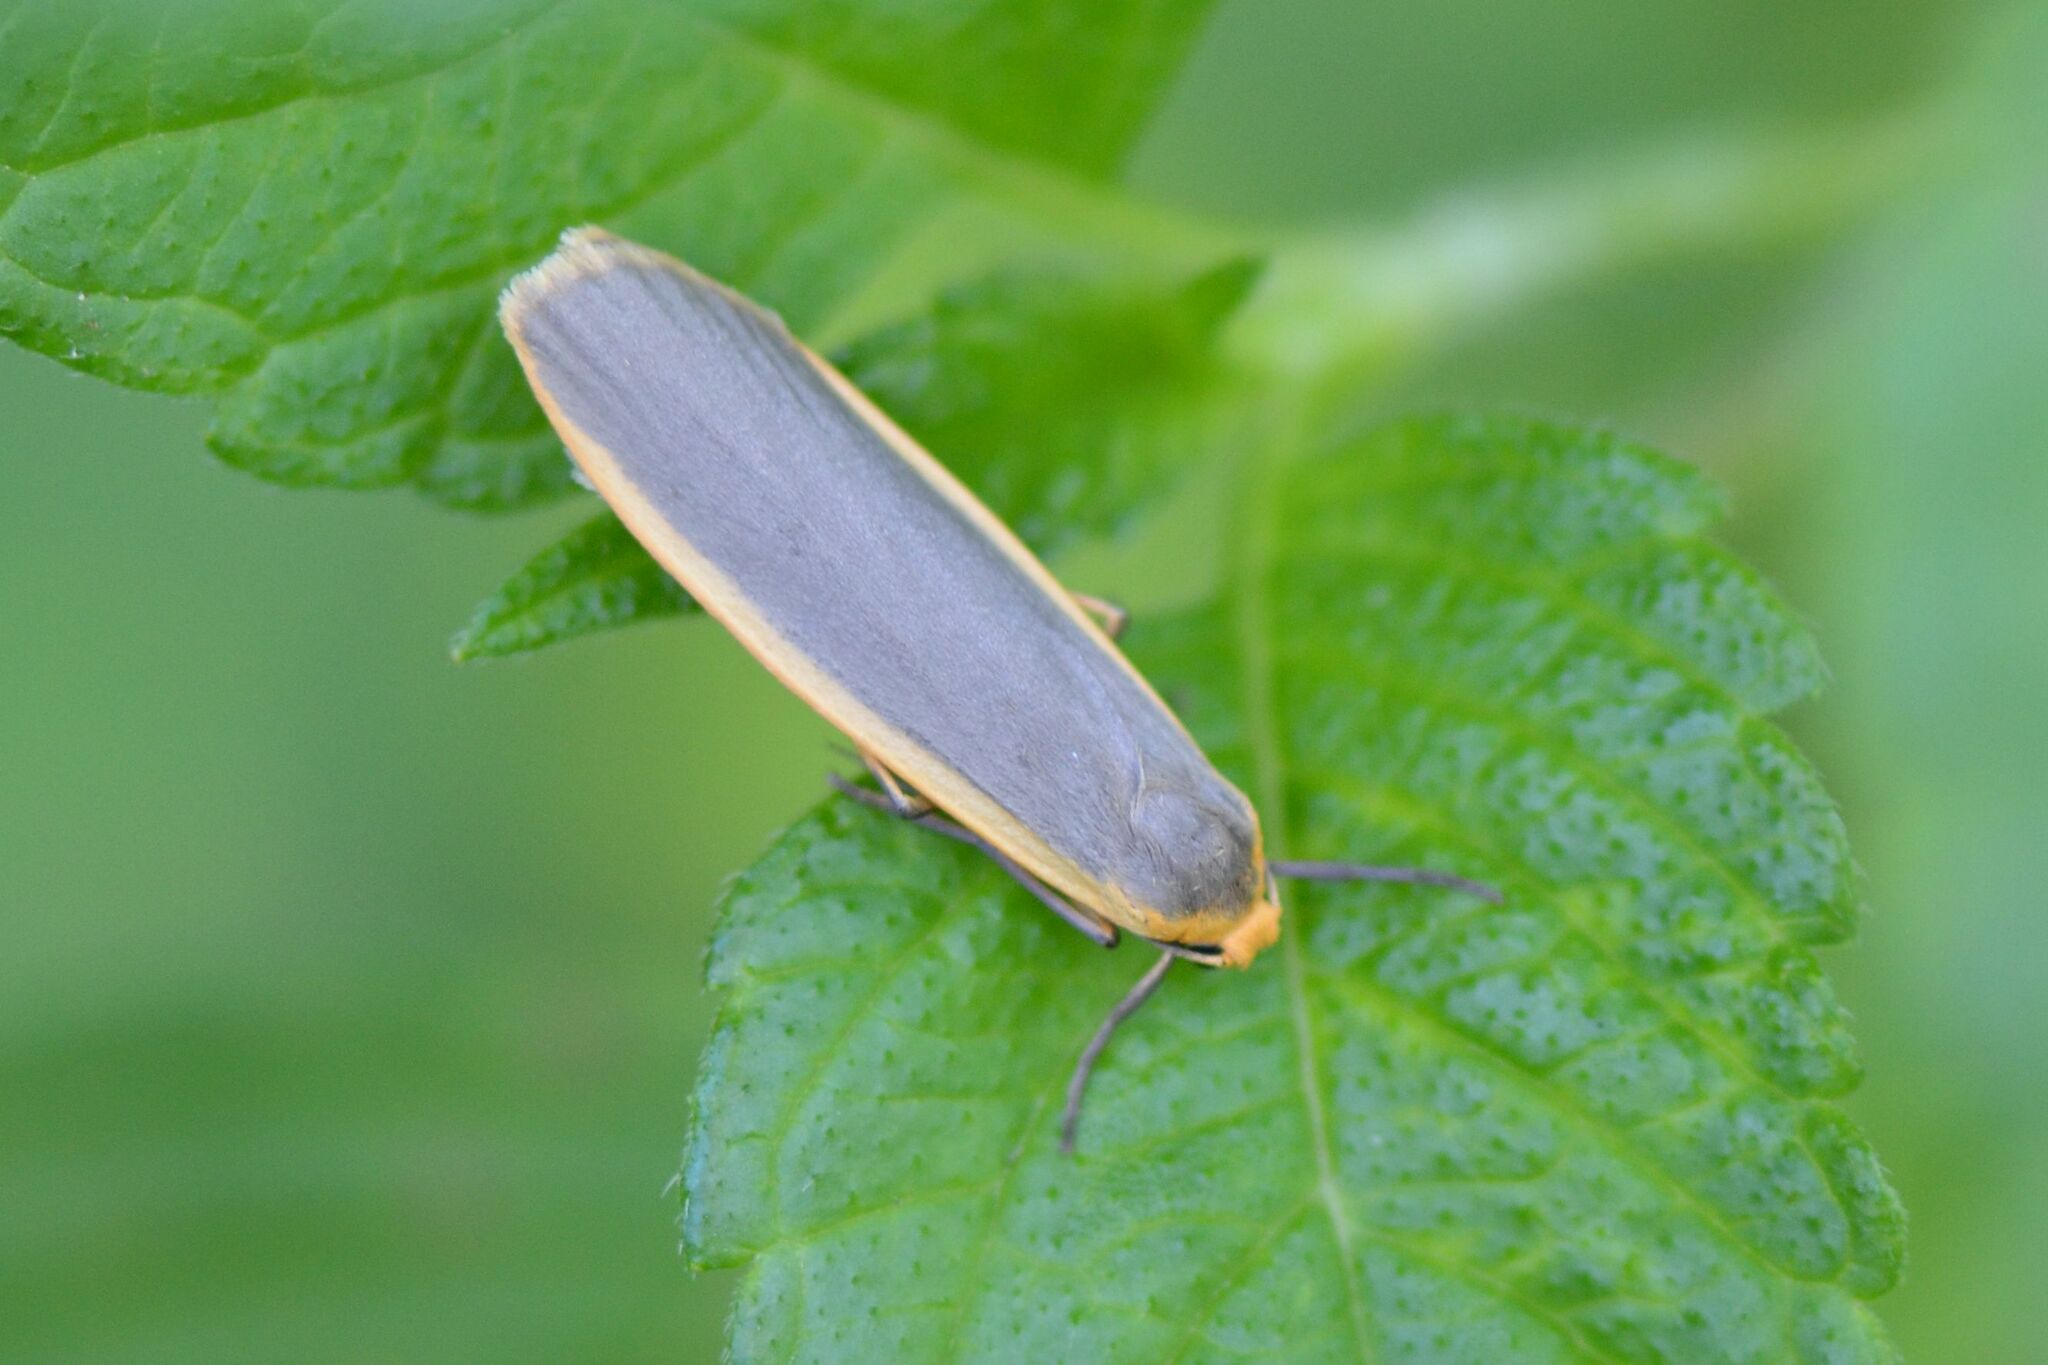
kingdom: Animalia
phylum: Arthropoda
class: Insecta
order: Lepidoptera
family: Erebidae
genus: Nyea
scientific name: Nyea lurideola
